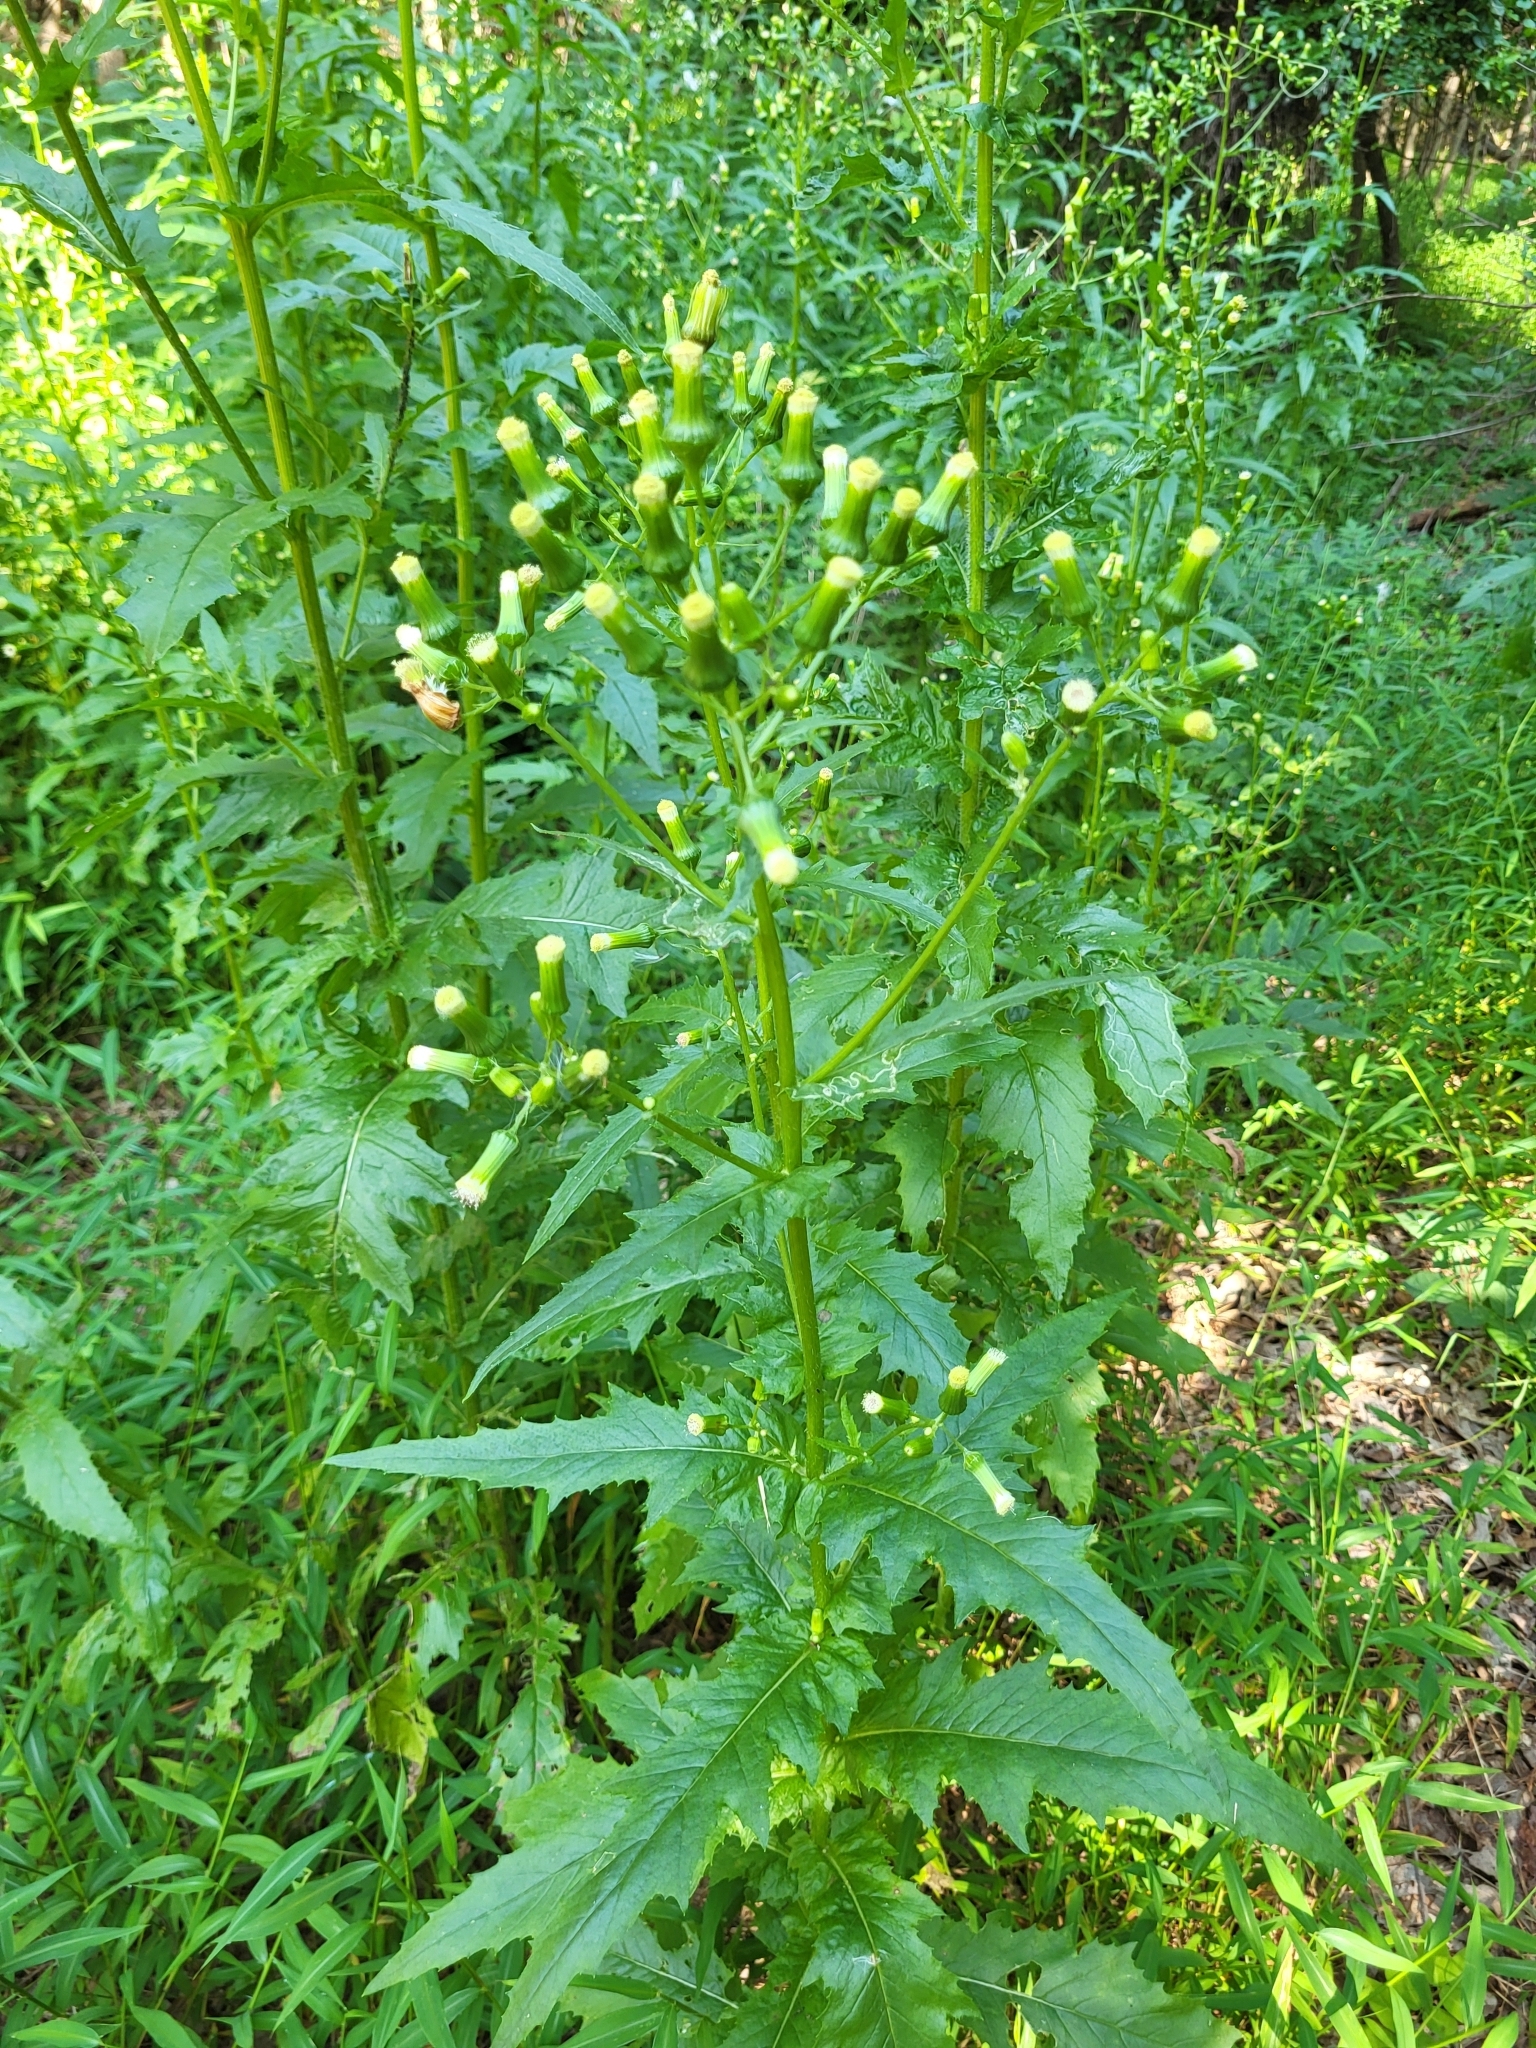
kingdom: Plantae
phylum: Tracheophyta
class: Magnoliopsida
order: Asterales
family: Asteraceae
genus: Erechtites
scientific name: Erechtites hieraciifolius
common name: American burnweed
